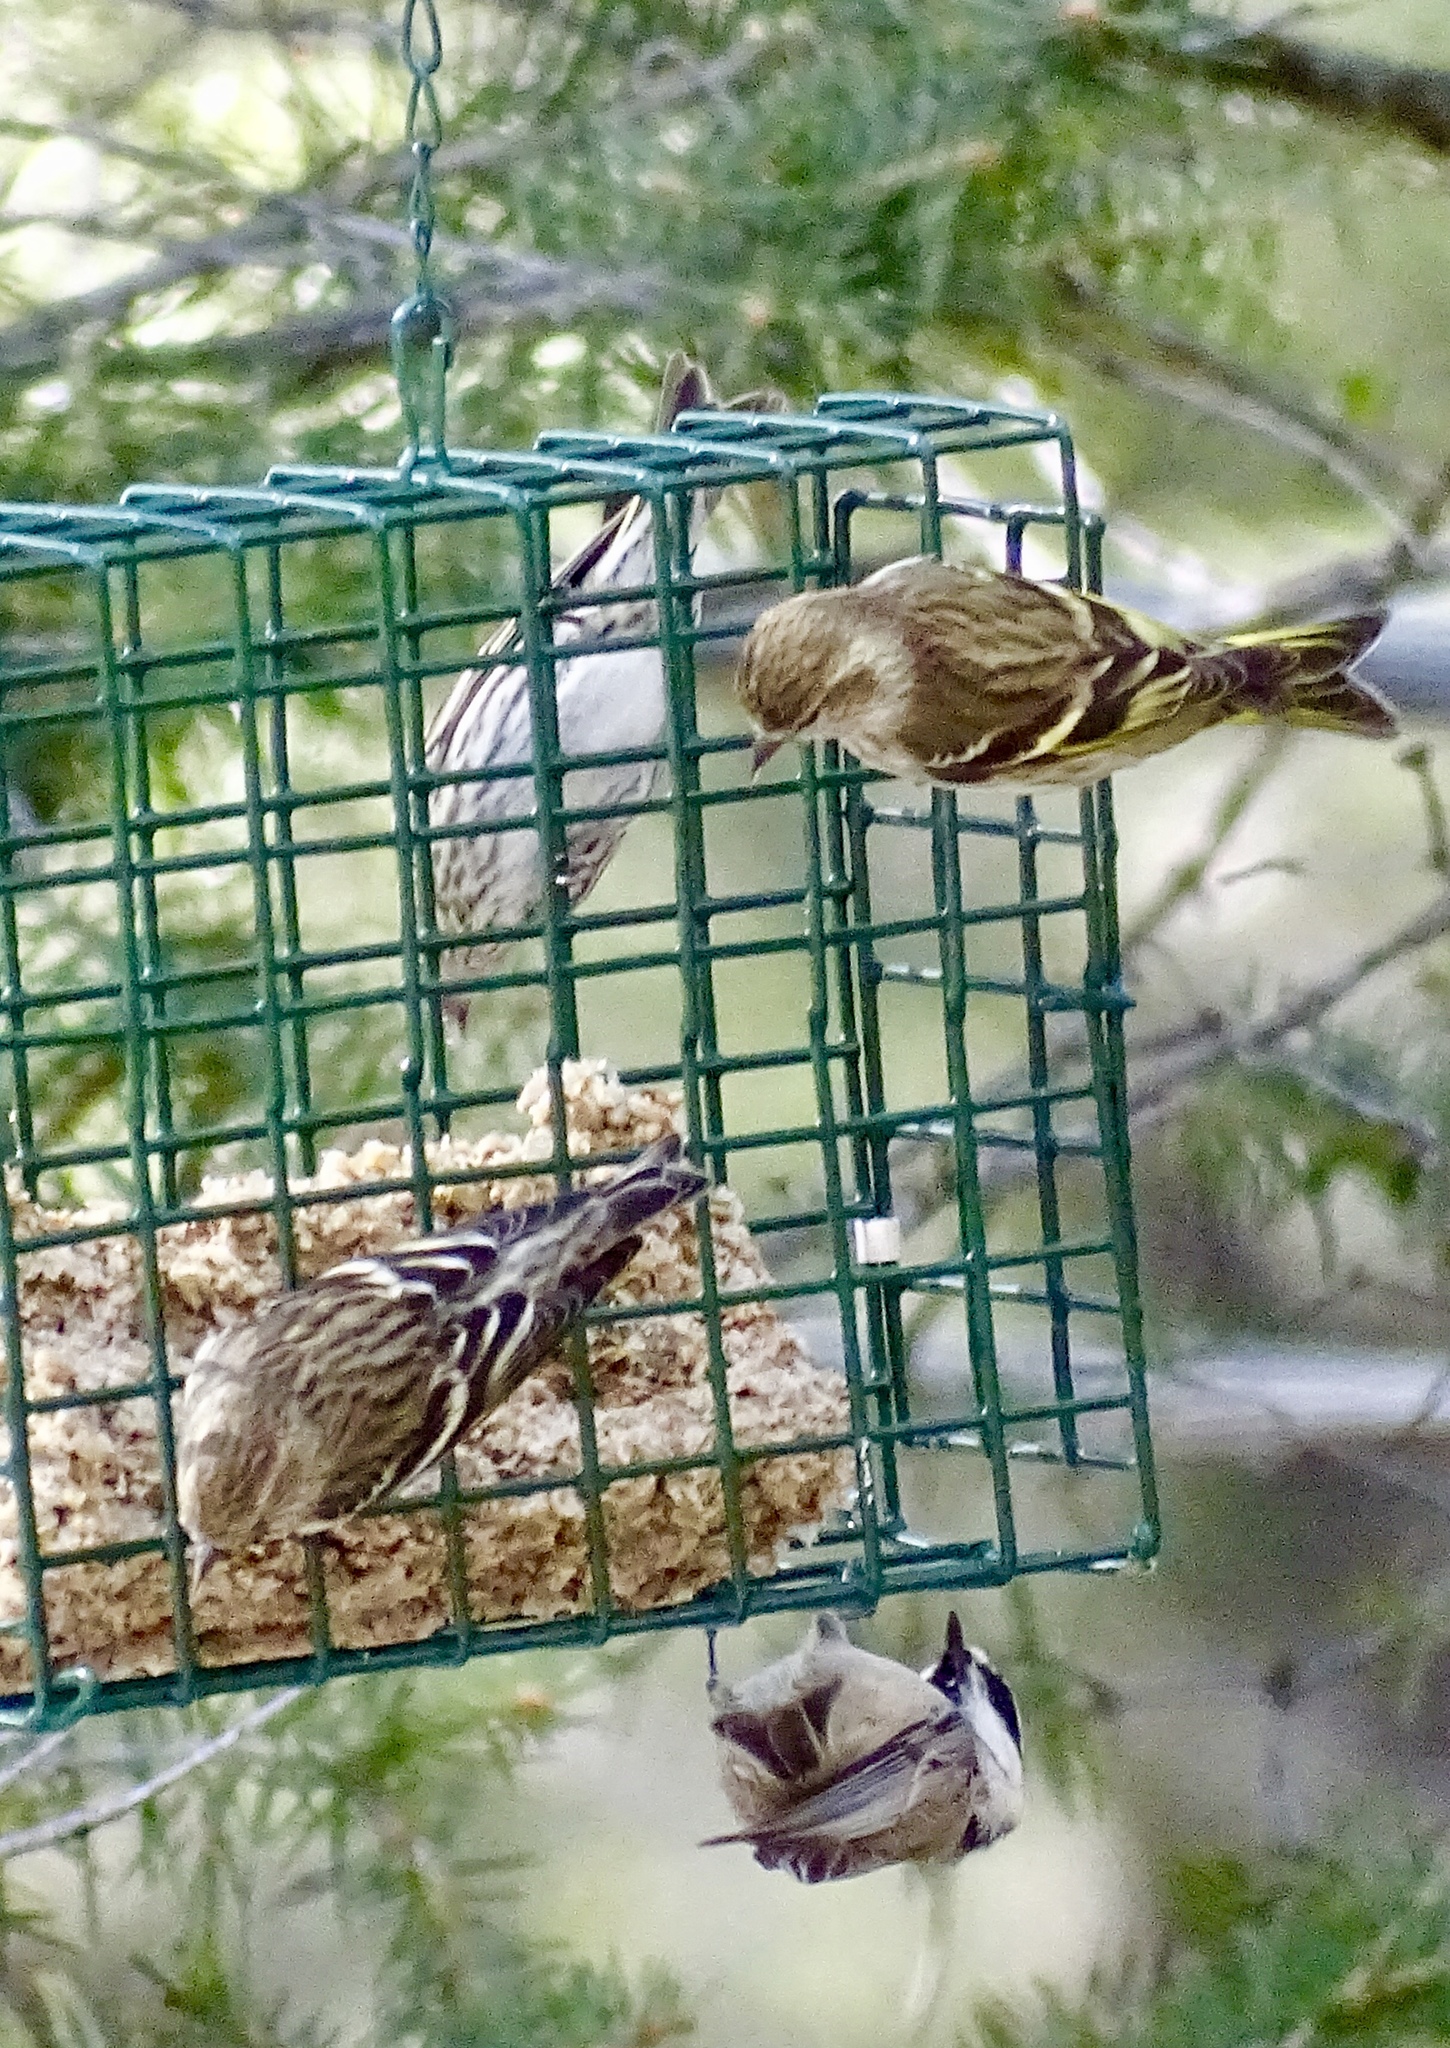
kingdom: Animalia
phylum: Chordata
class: Aves
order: Passeriformes
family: Fringillidae
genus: Spinus
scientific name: Spinus pinus
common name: Pine siskin
